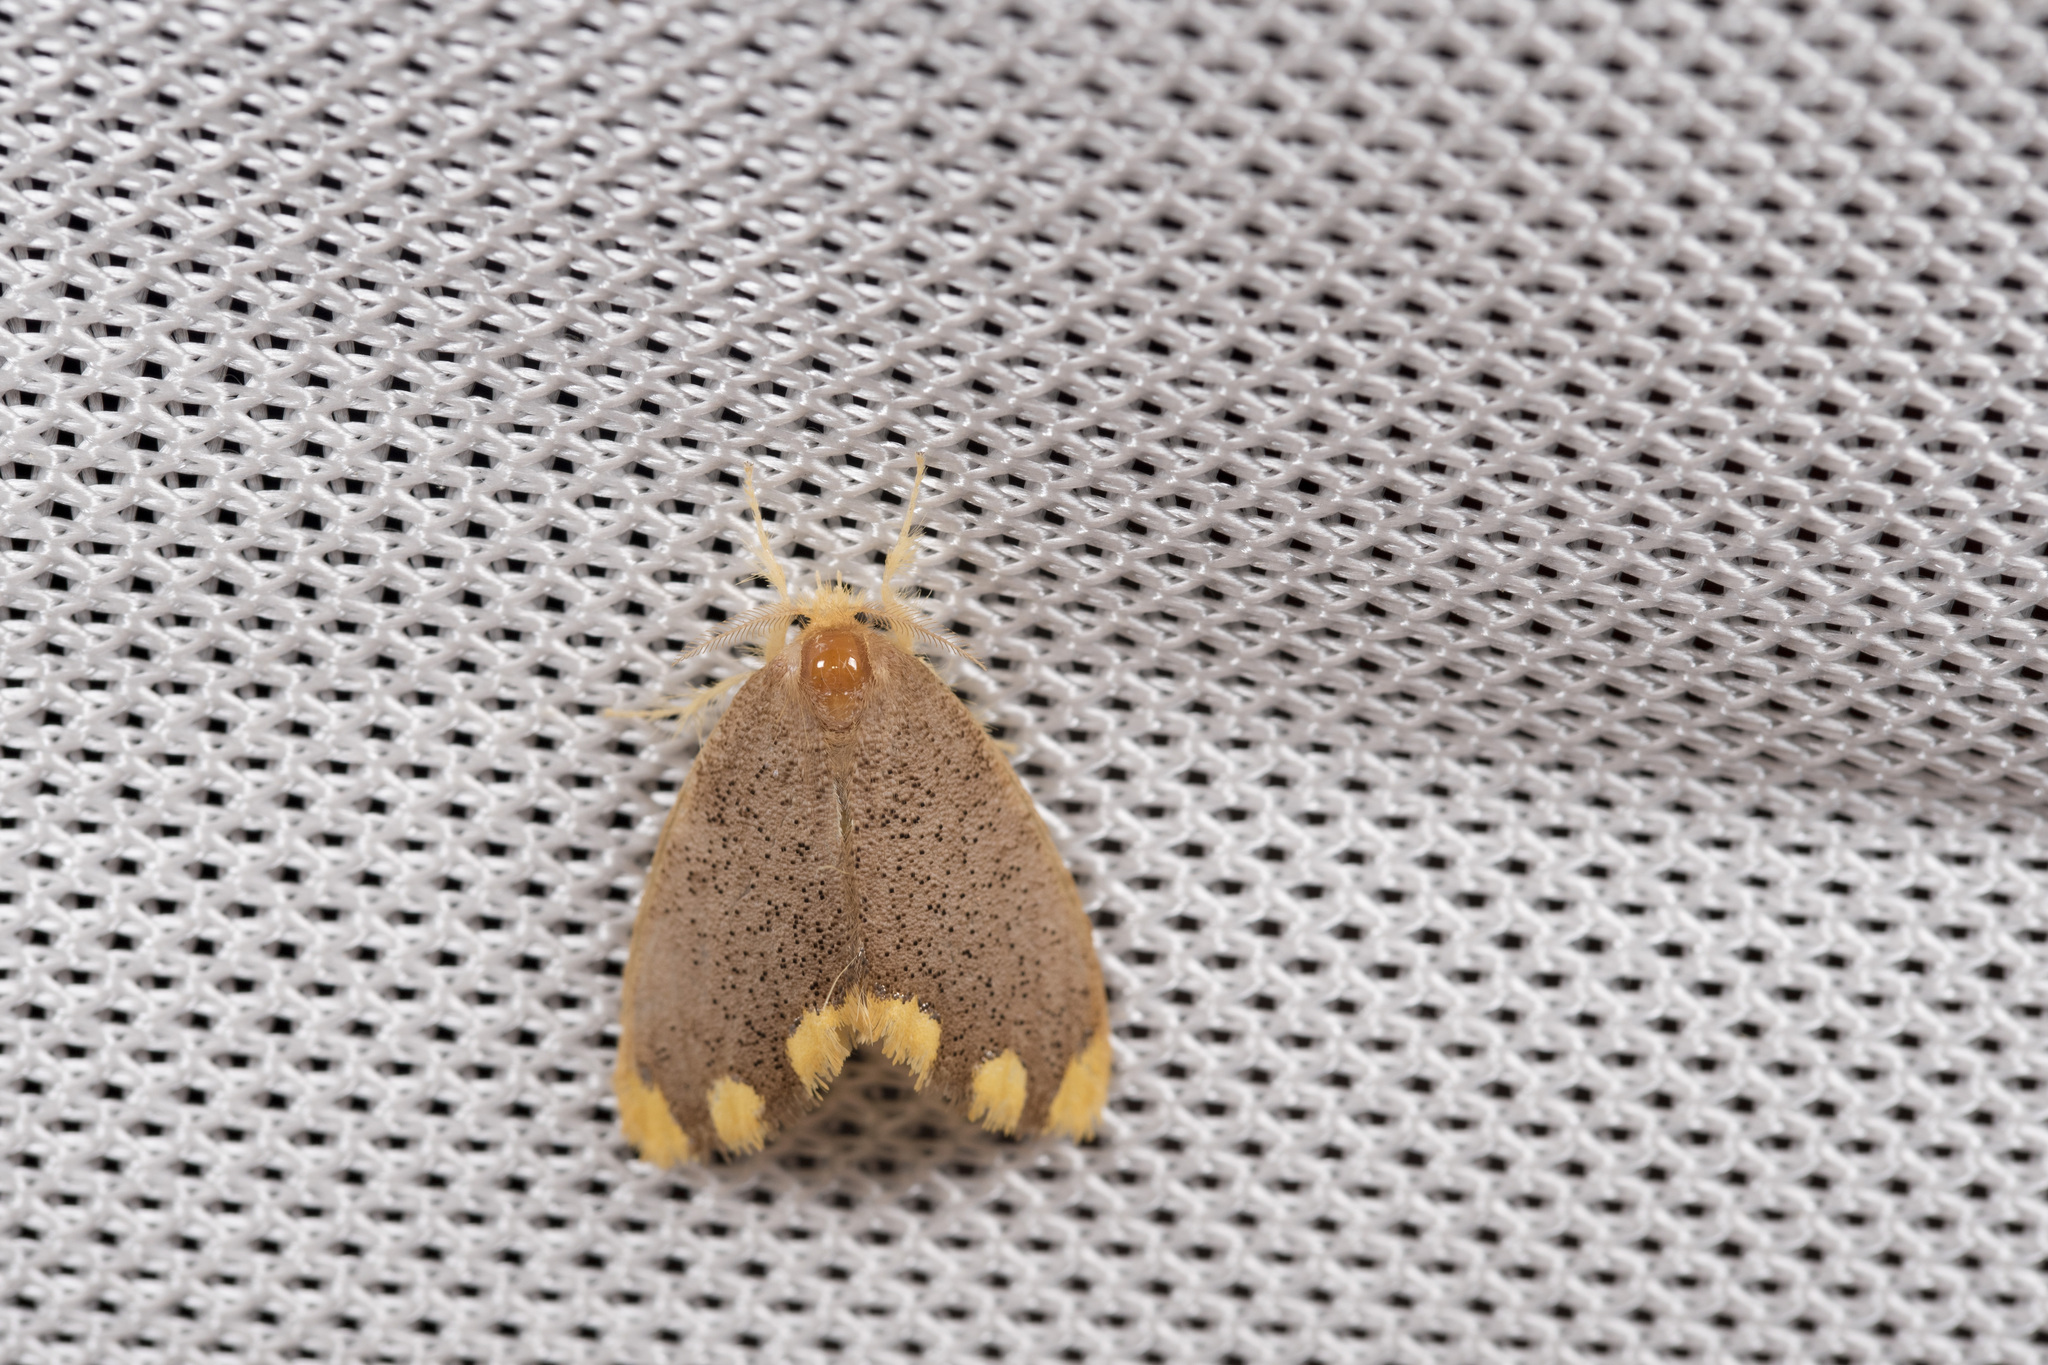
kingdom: Animalia
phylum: Arthropoda
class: Insecta
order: Lepidoptera
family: Erebidae
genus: Somena
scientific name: Somena scintillans
